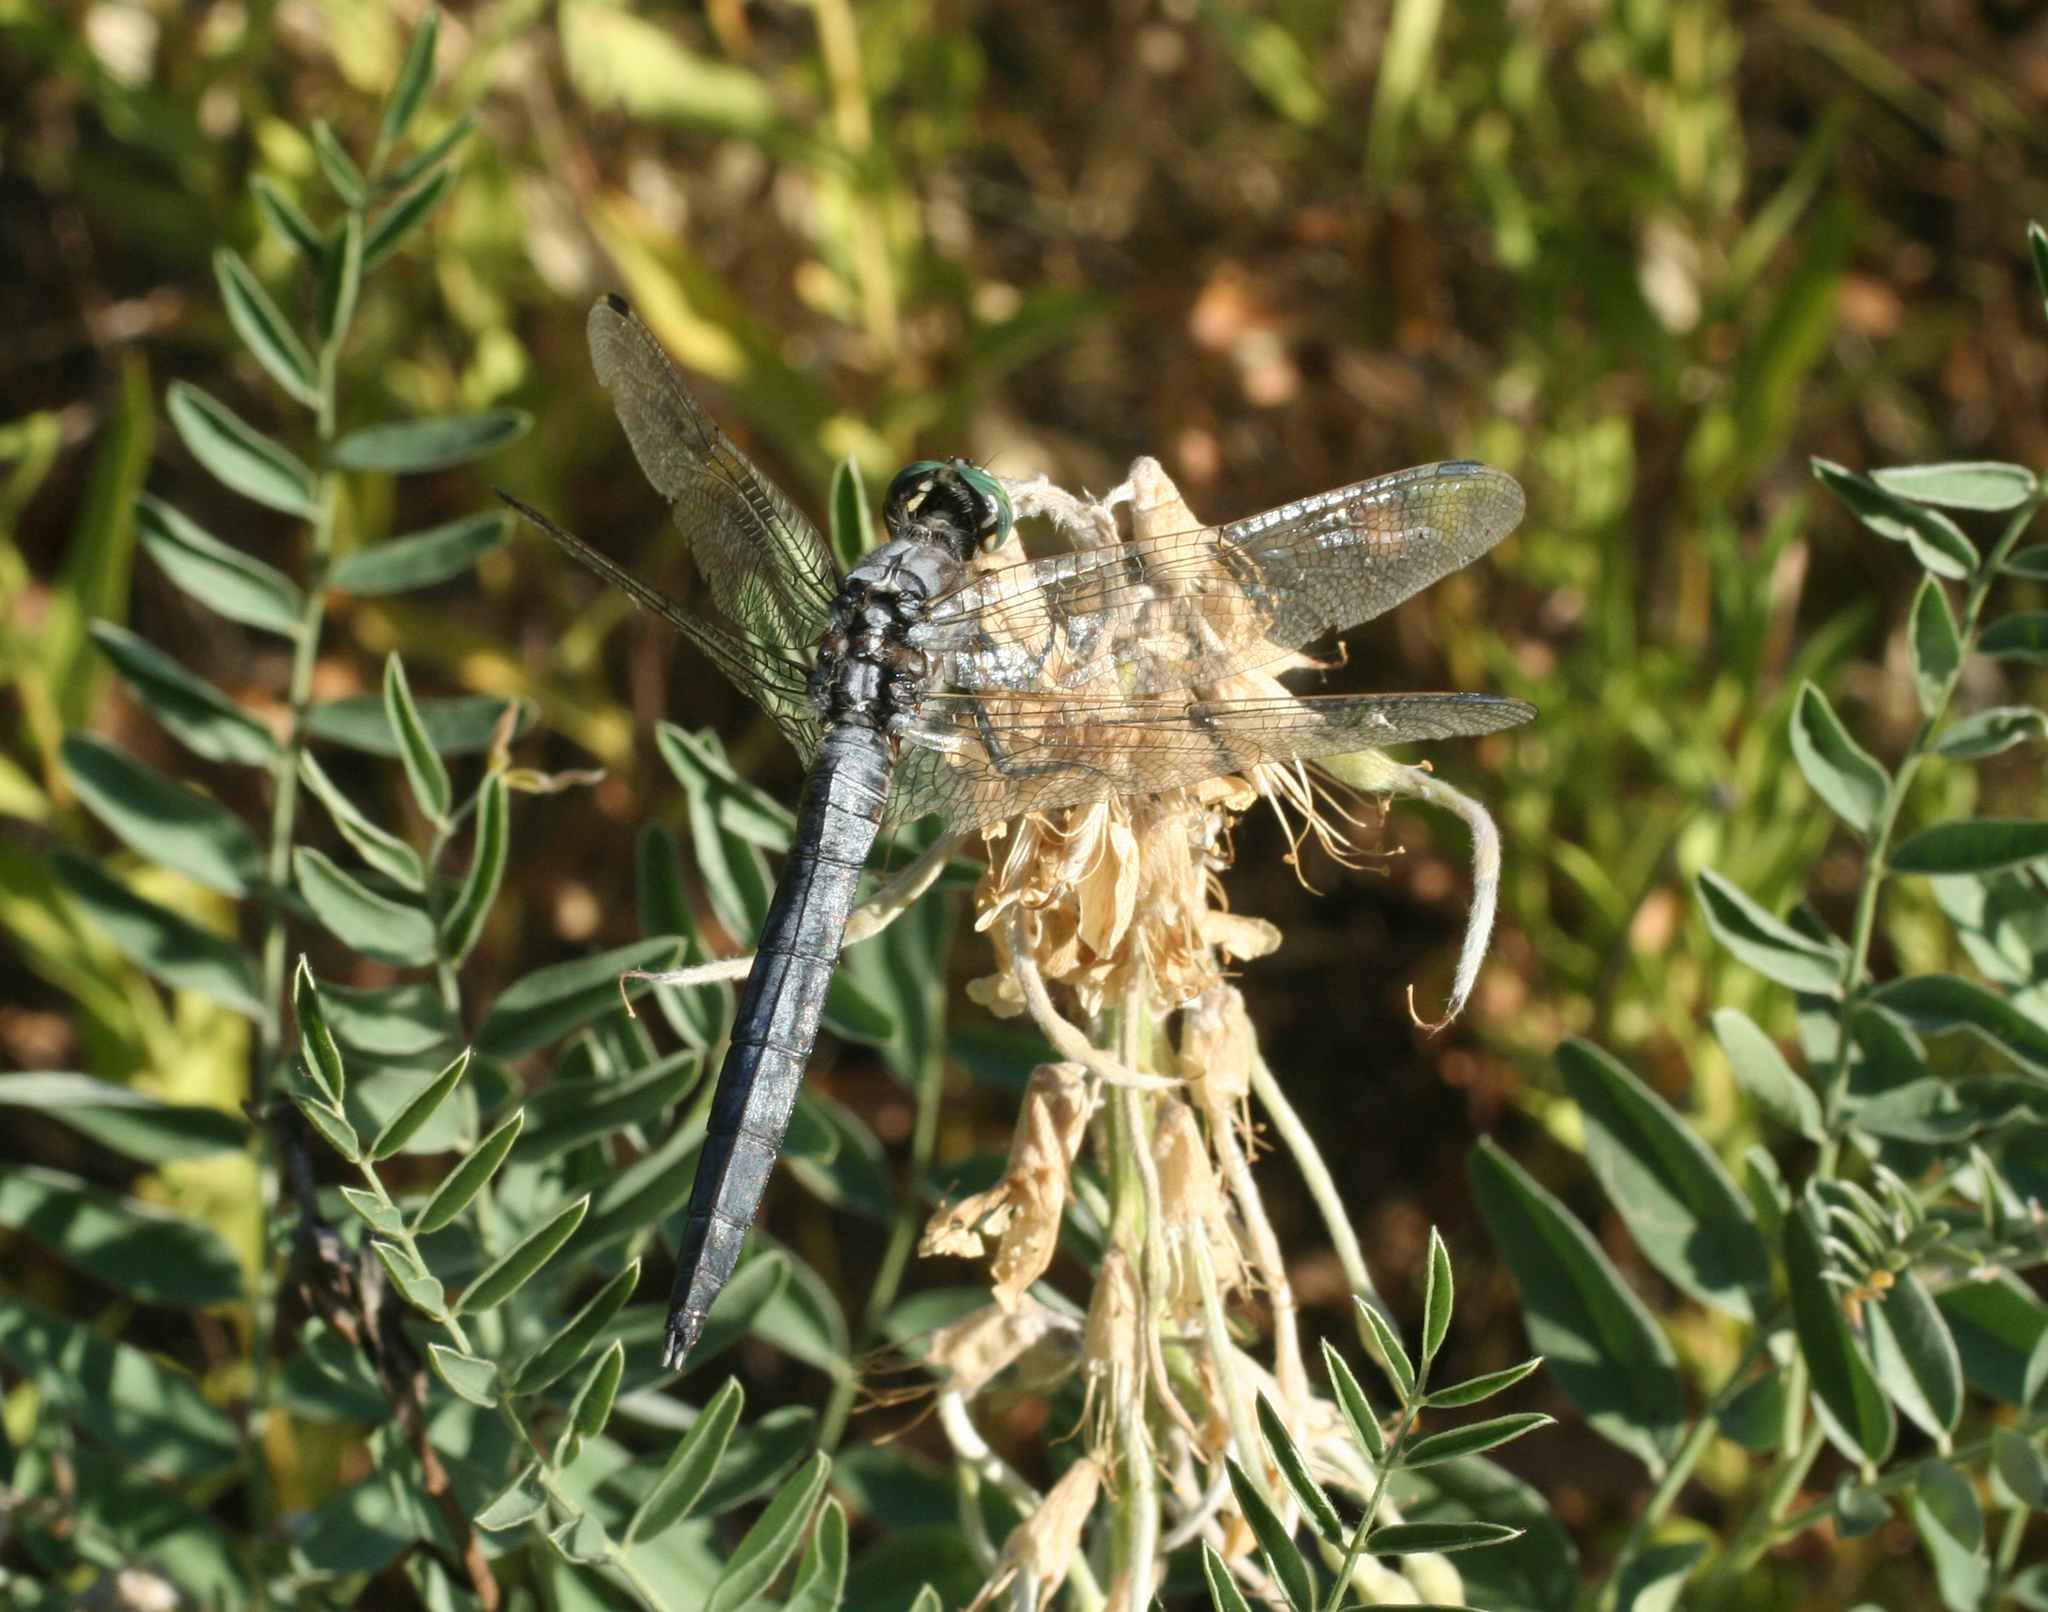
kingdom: Plantae
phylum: Tracheophyta
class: Magnoliopsida
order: Fabales
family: Fabaceae
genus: Sophora
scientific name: Sophora alopecuroides
